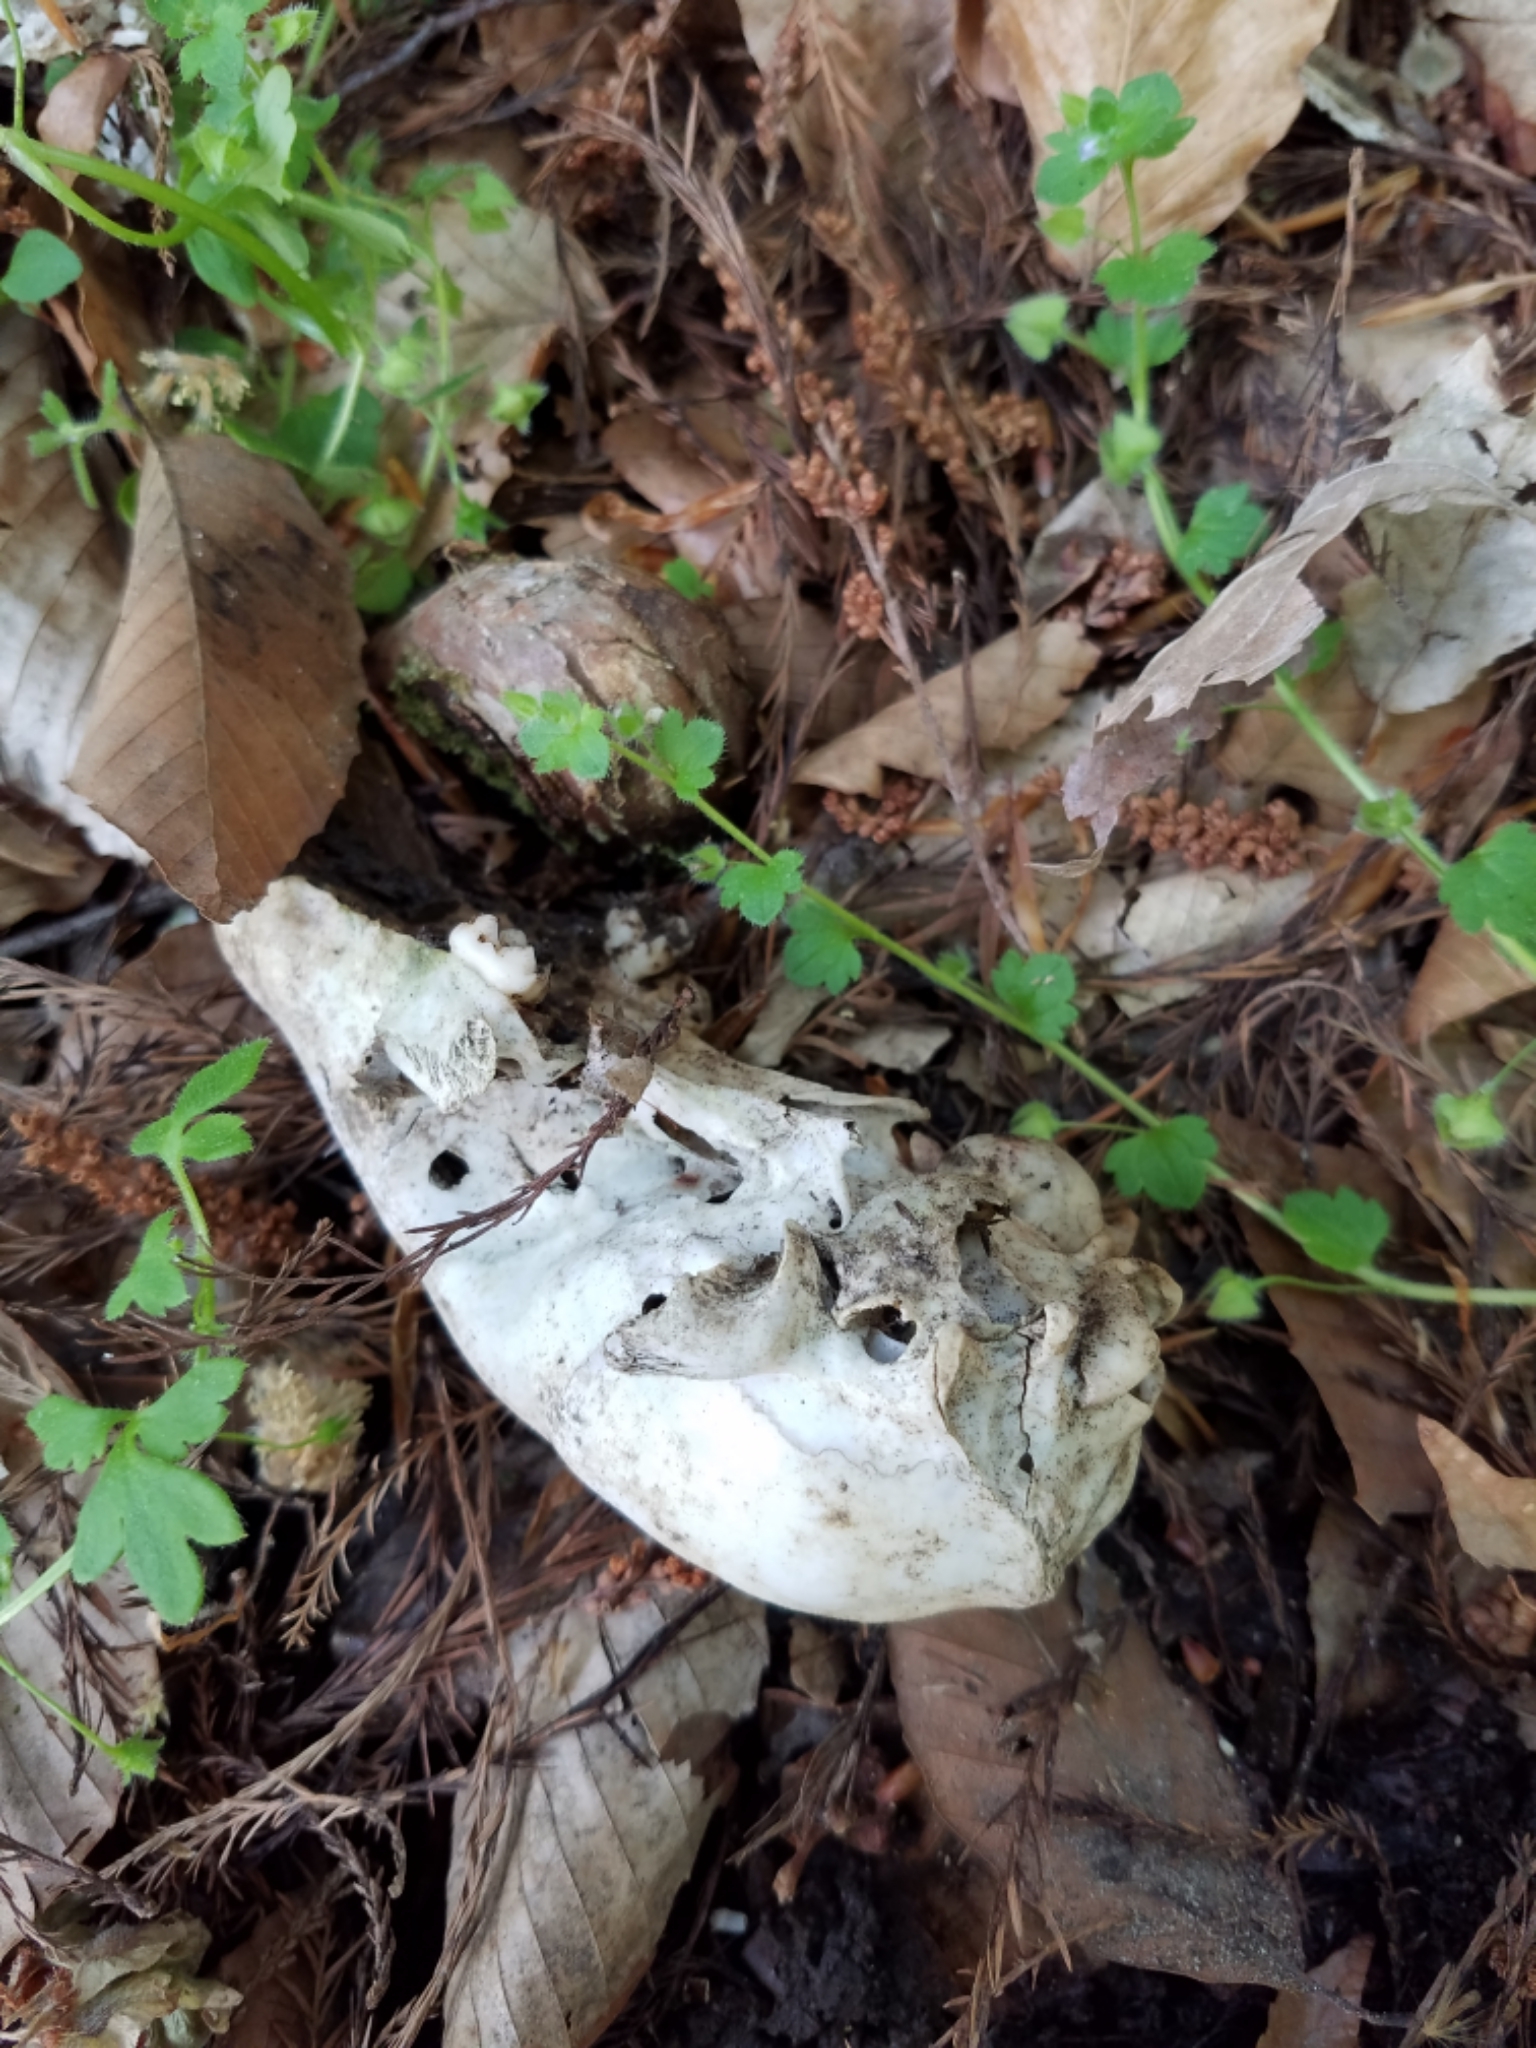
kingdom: Animalia
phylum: Chordata
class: Mammalia
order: Carnivora
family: Procyonidae
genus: Procyon
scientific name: Procyon lotor
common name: Raccoon
